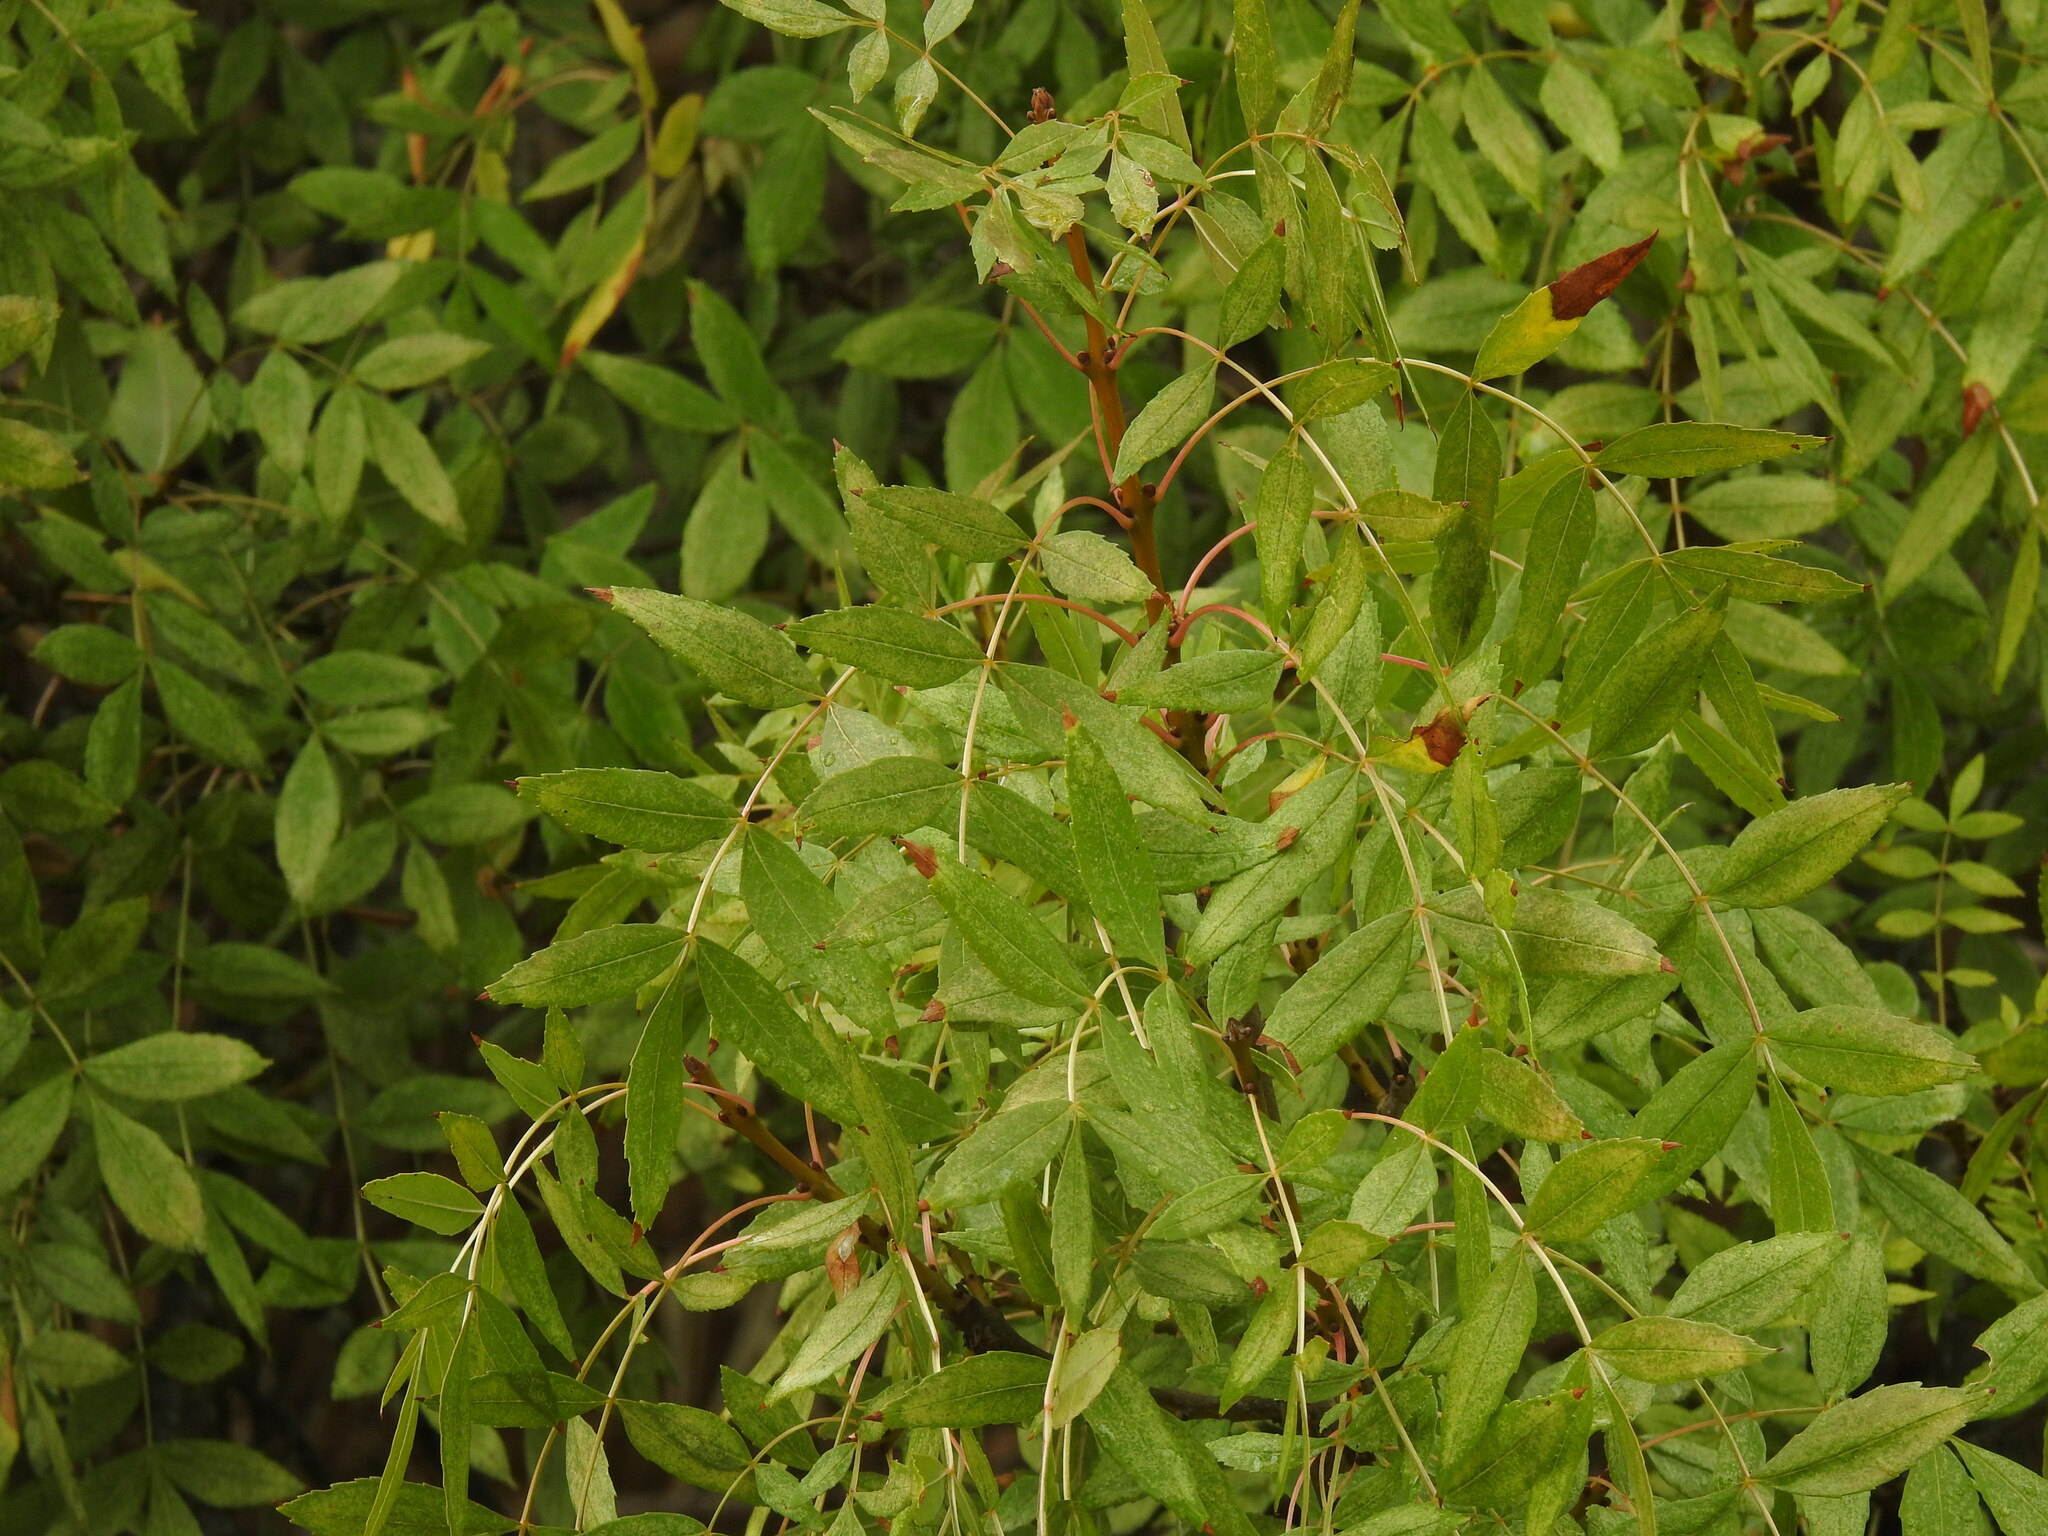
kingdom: Plantae
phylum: Tracheophyta
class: Magnoliopsida
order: Lamiales
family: Oleaceae
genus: Fraxinus
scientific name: Fraxinus angustifolia
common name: Narrow-leafed ash
